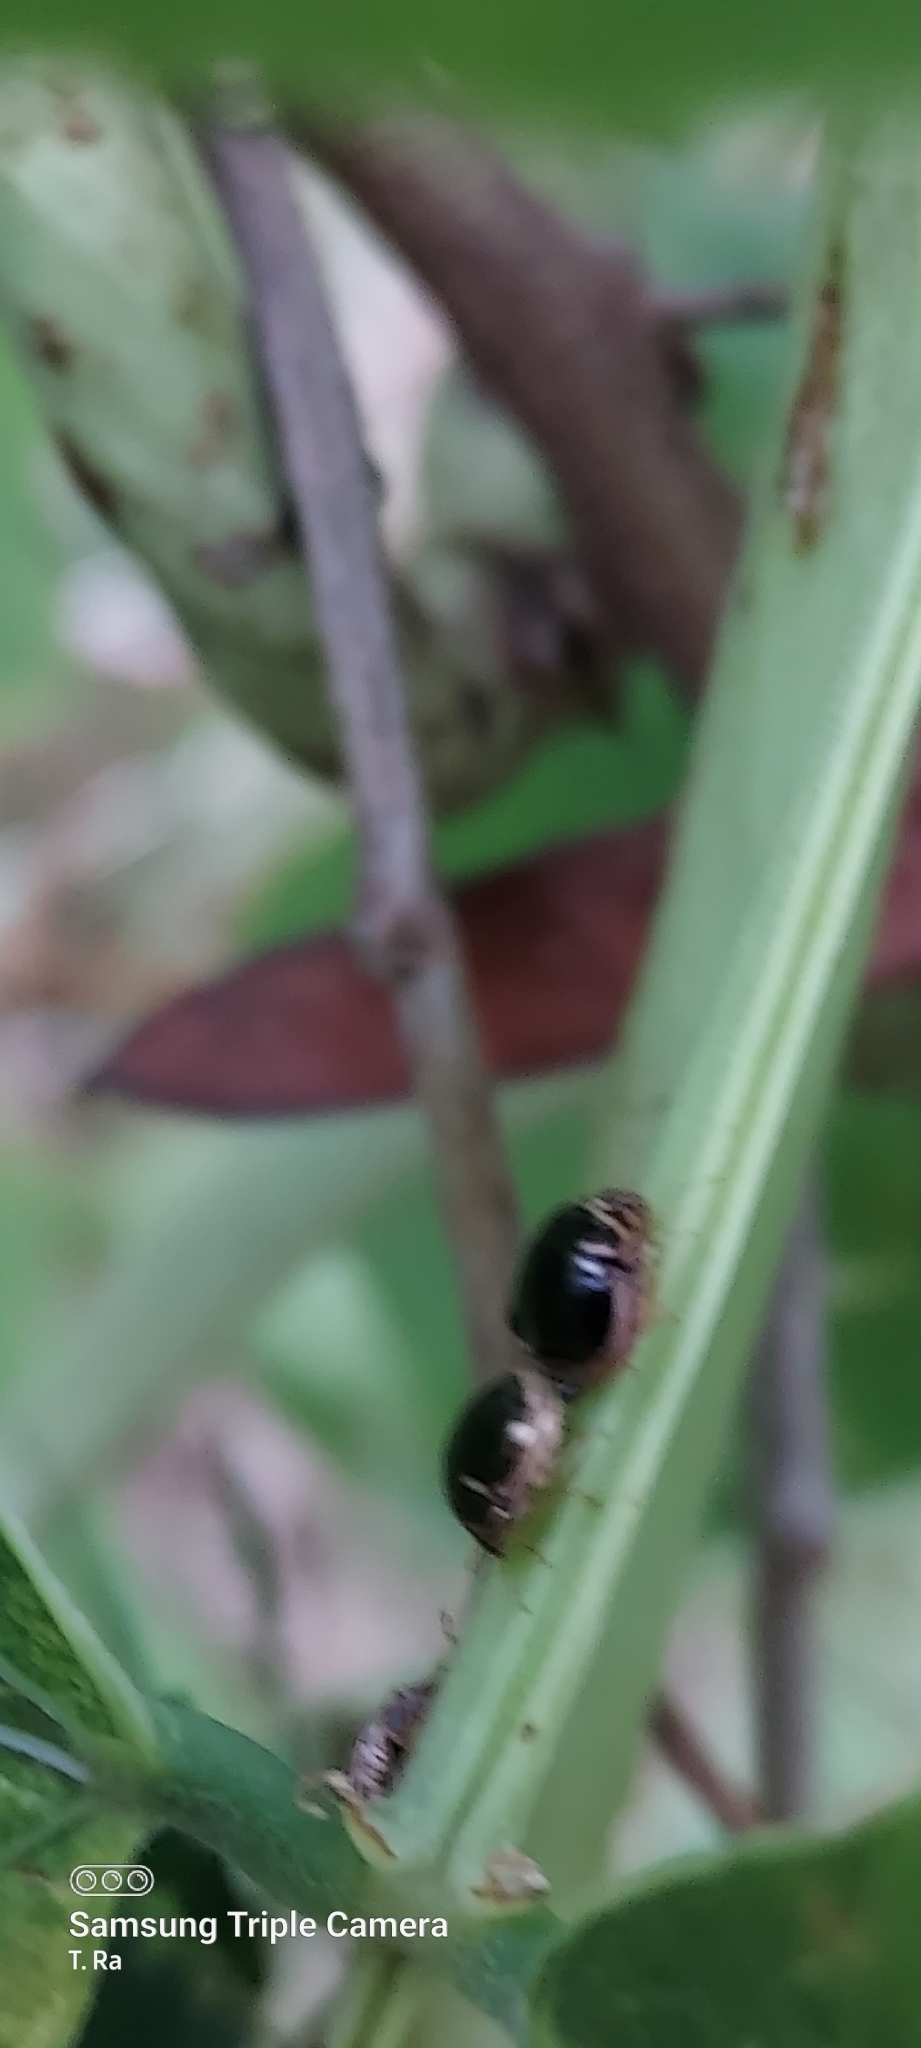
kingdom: Animalia
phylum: Arthropoda
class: Insecta
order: Hemiptera
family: Plataspidae
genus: Coptosoma
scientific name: Coptosoma
